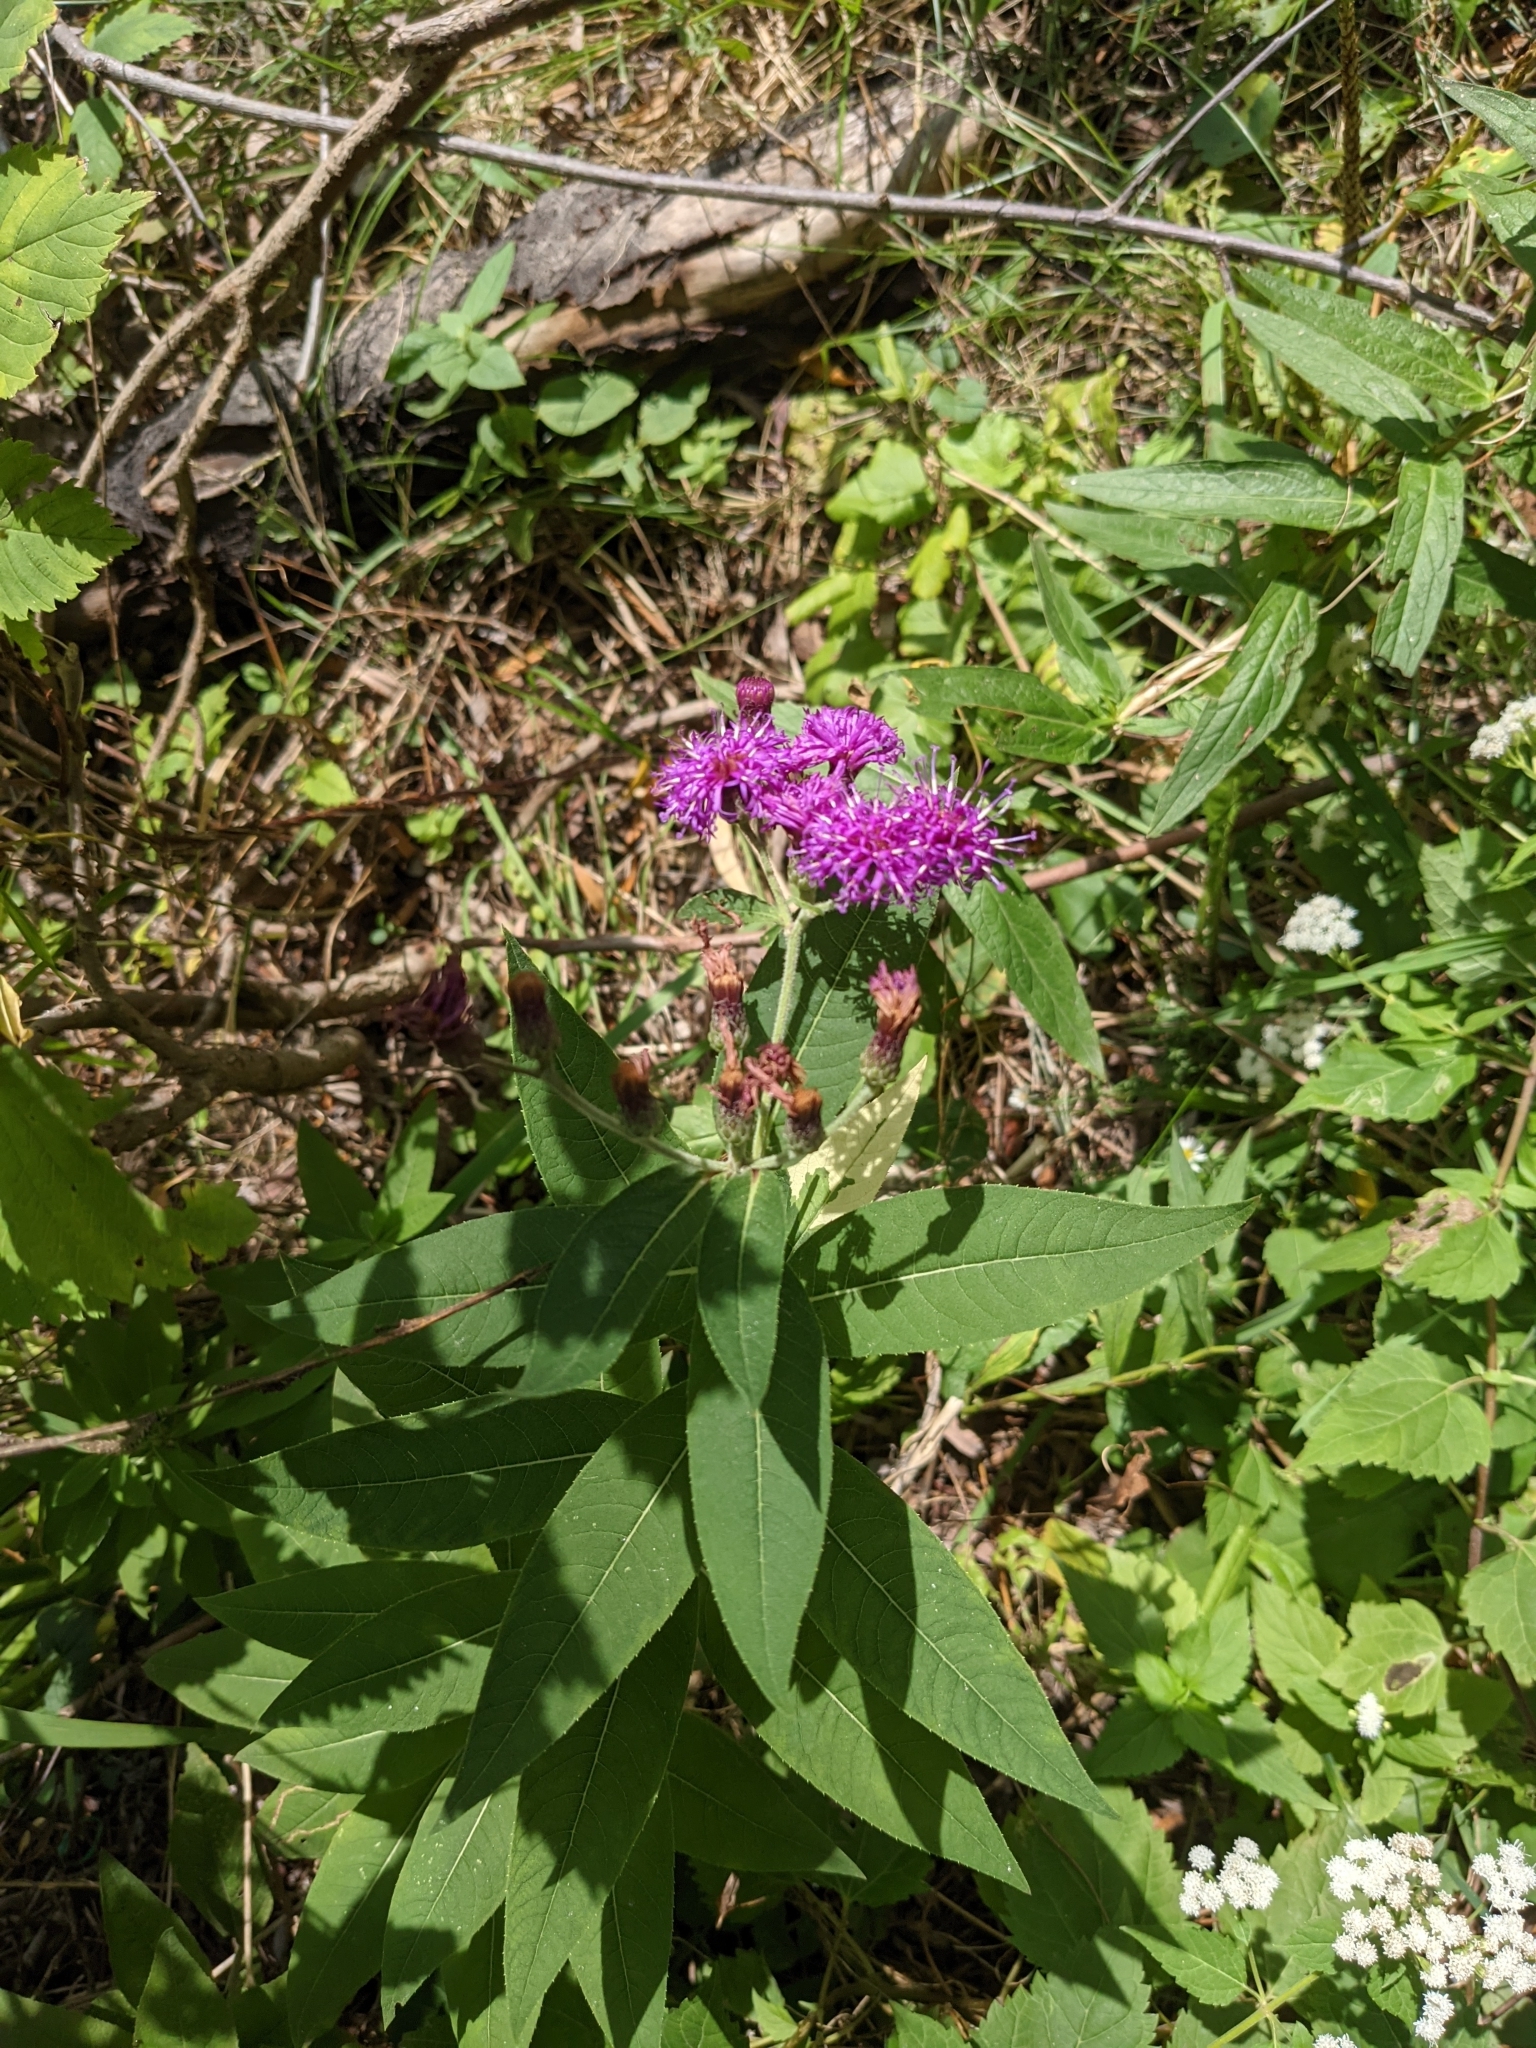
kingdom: Plantae
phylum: Tracheophyta
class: Magnoliopsida
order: Asterales
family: Asteraceae
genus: Vernonia
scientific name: Vernonia baldwinii
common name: Western ironweed
